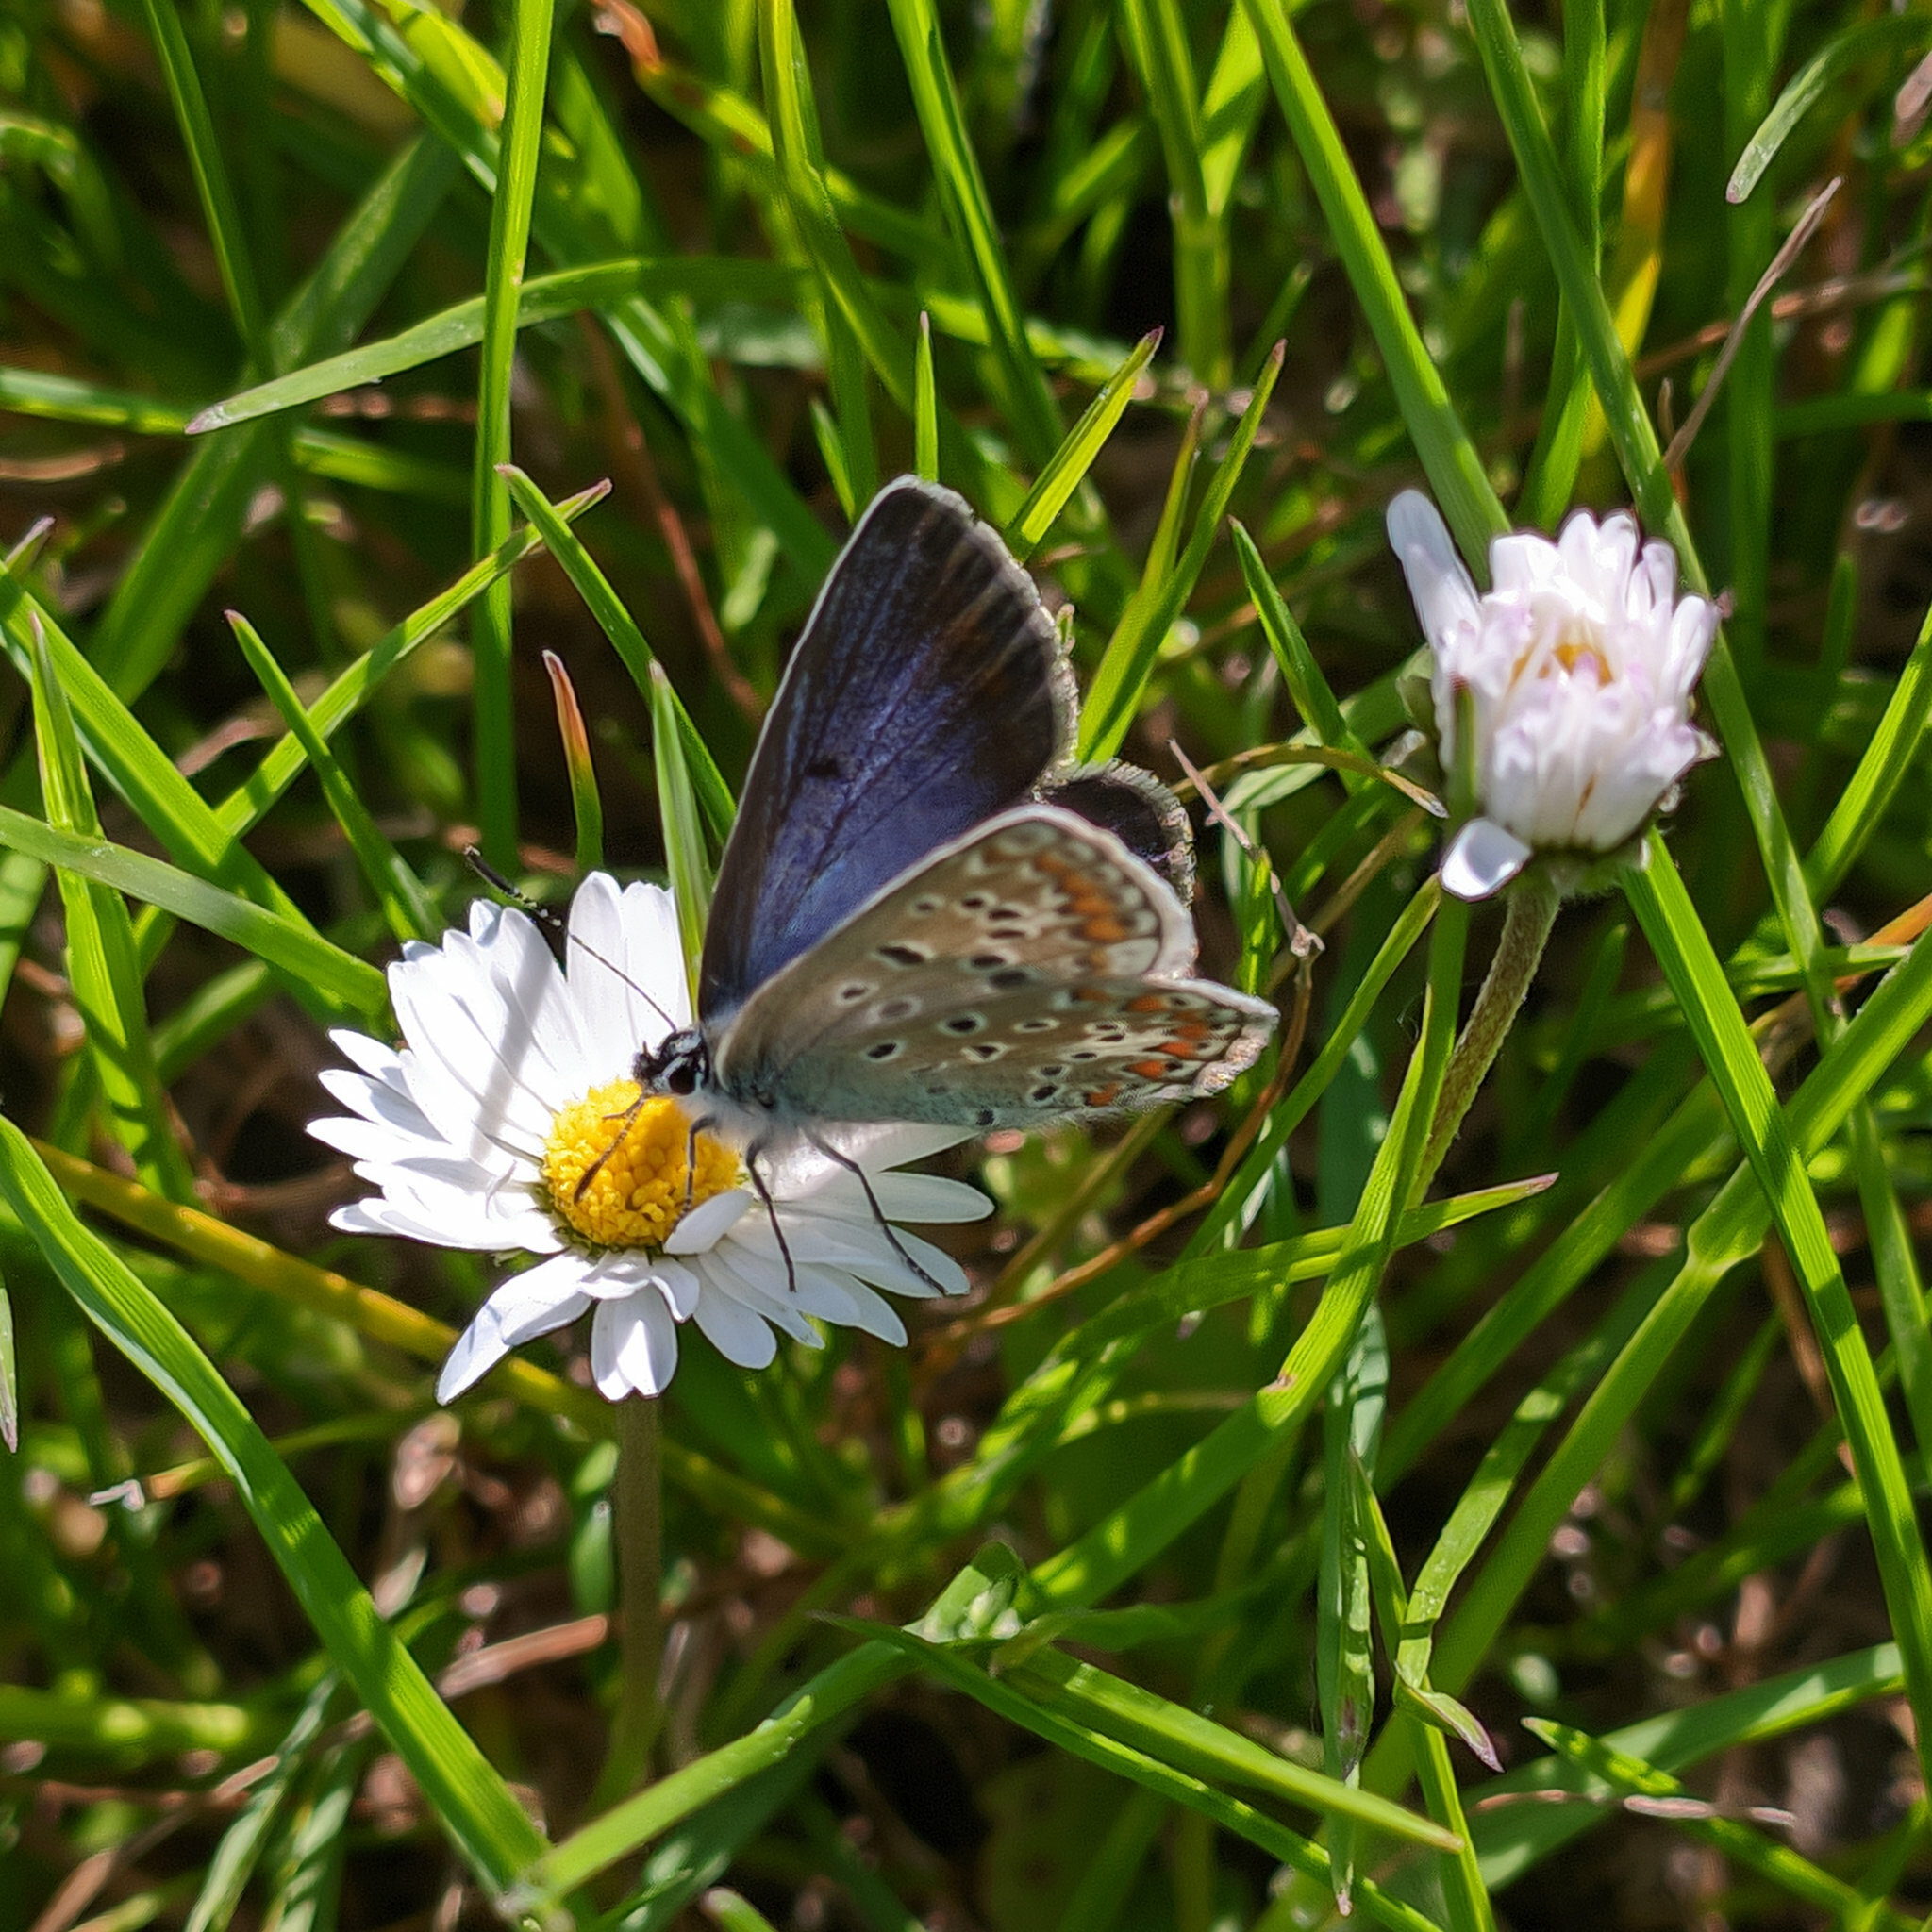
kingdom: Animalia
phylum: Arthropoda
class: Insecta
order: Lepidoptera
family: Lycaenidae
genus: Polyommatus
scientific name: Polyommatus icarus
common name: Common blue
